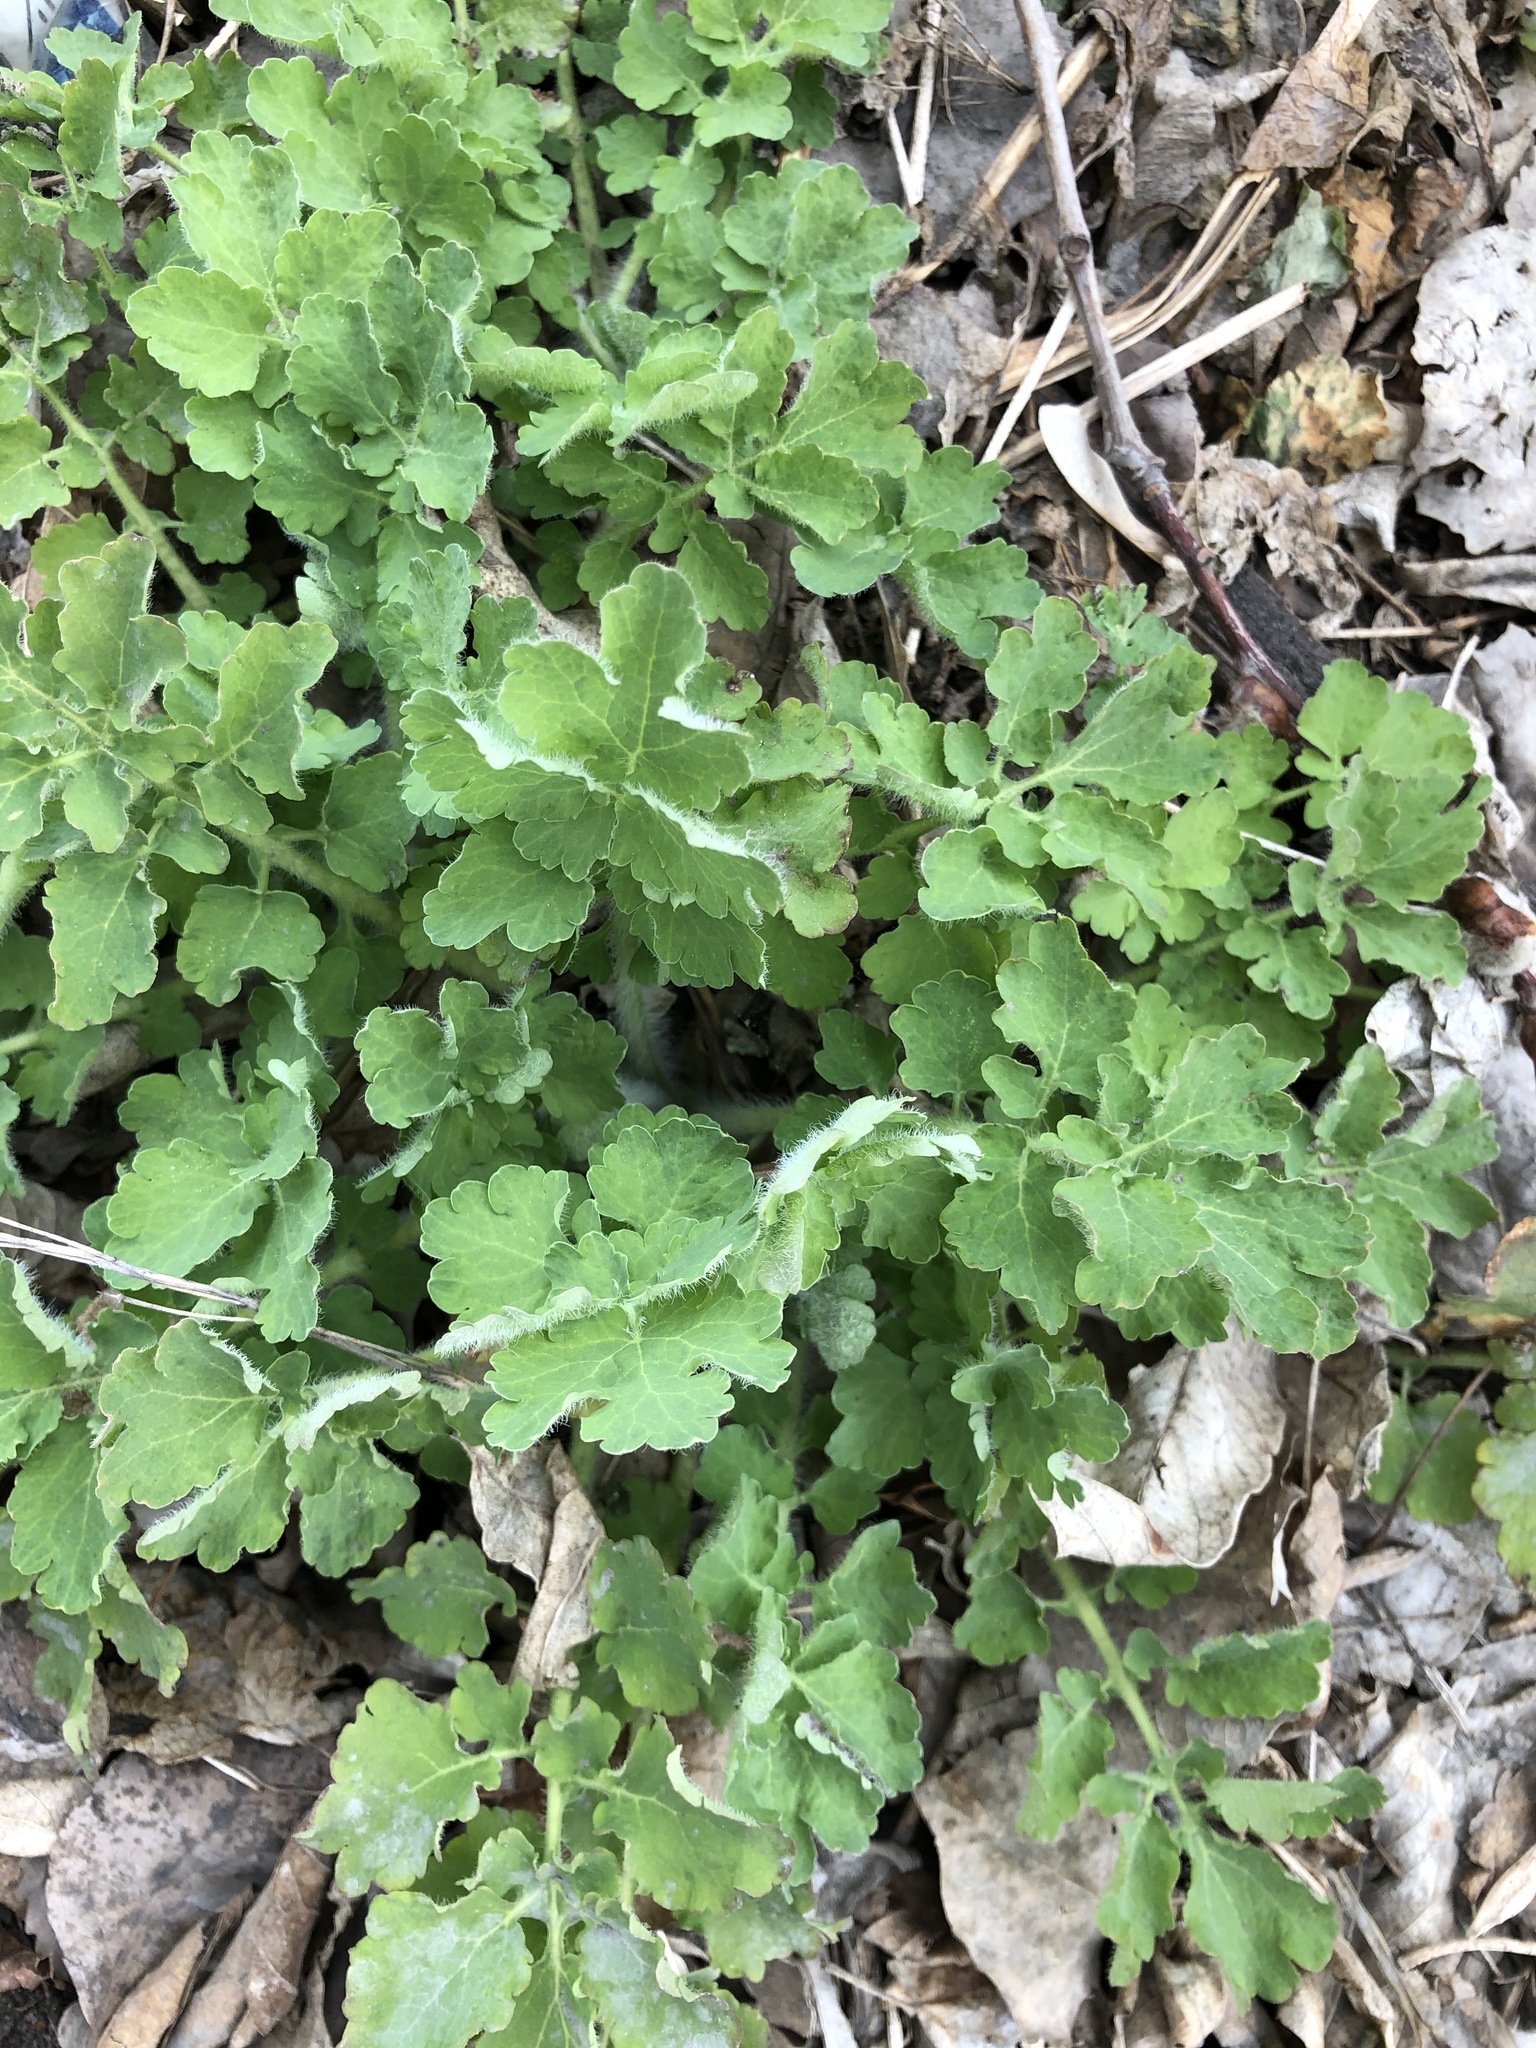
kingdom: Plantae
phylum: Tracheophyta
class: Magnoliopsida
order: Ranunculales
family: Papaveraceae
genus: Chelidonium
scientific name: Chelidonium majus
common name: Greater celandine
